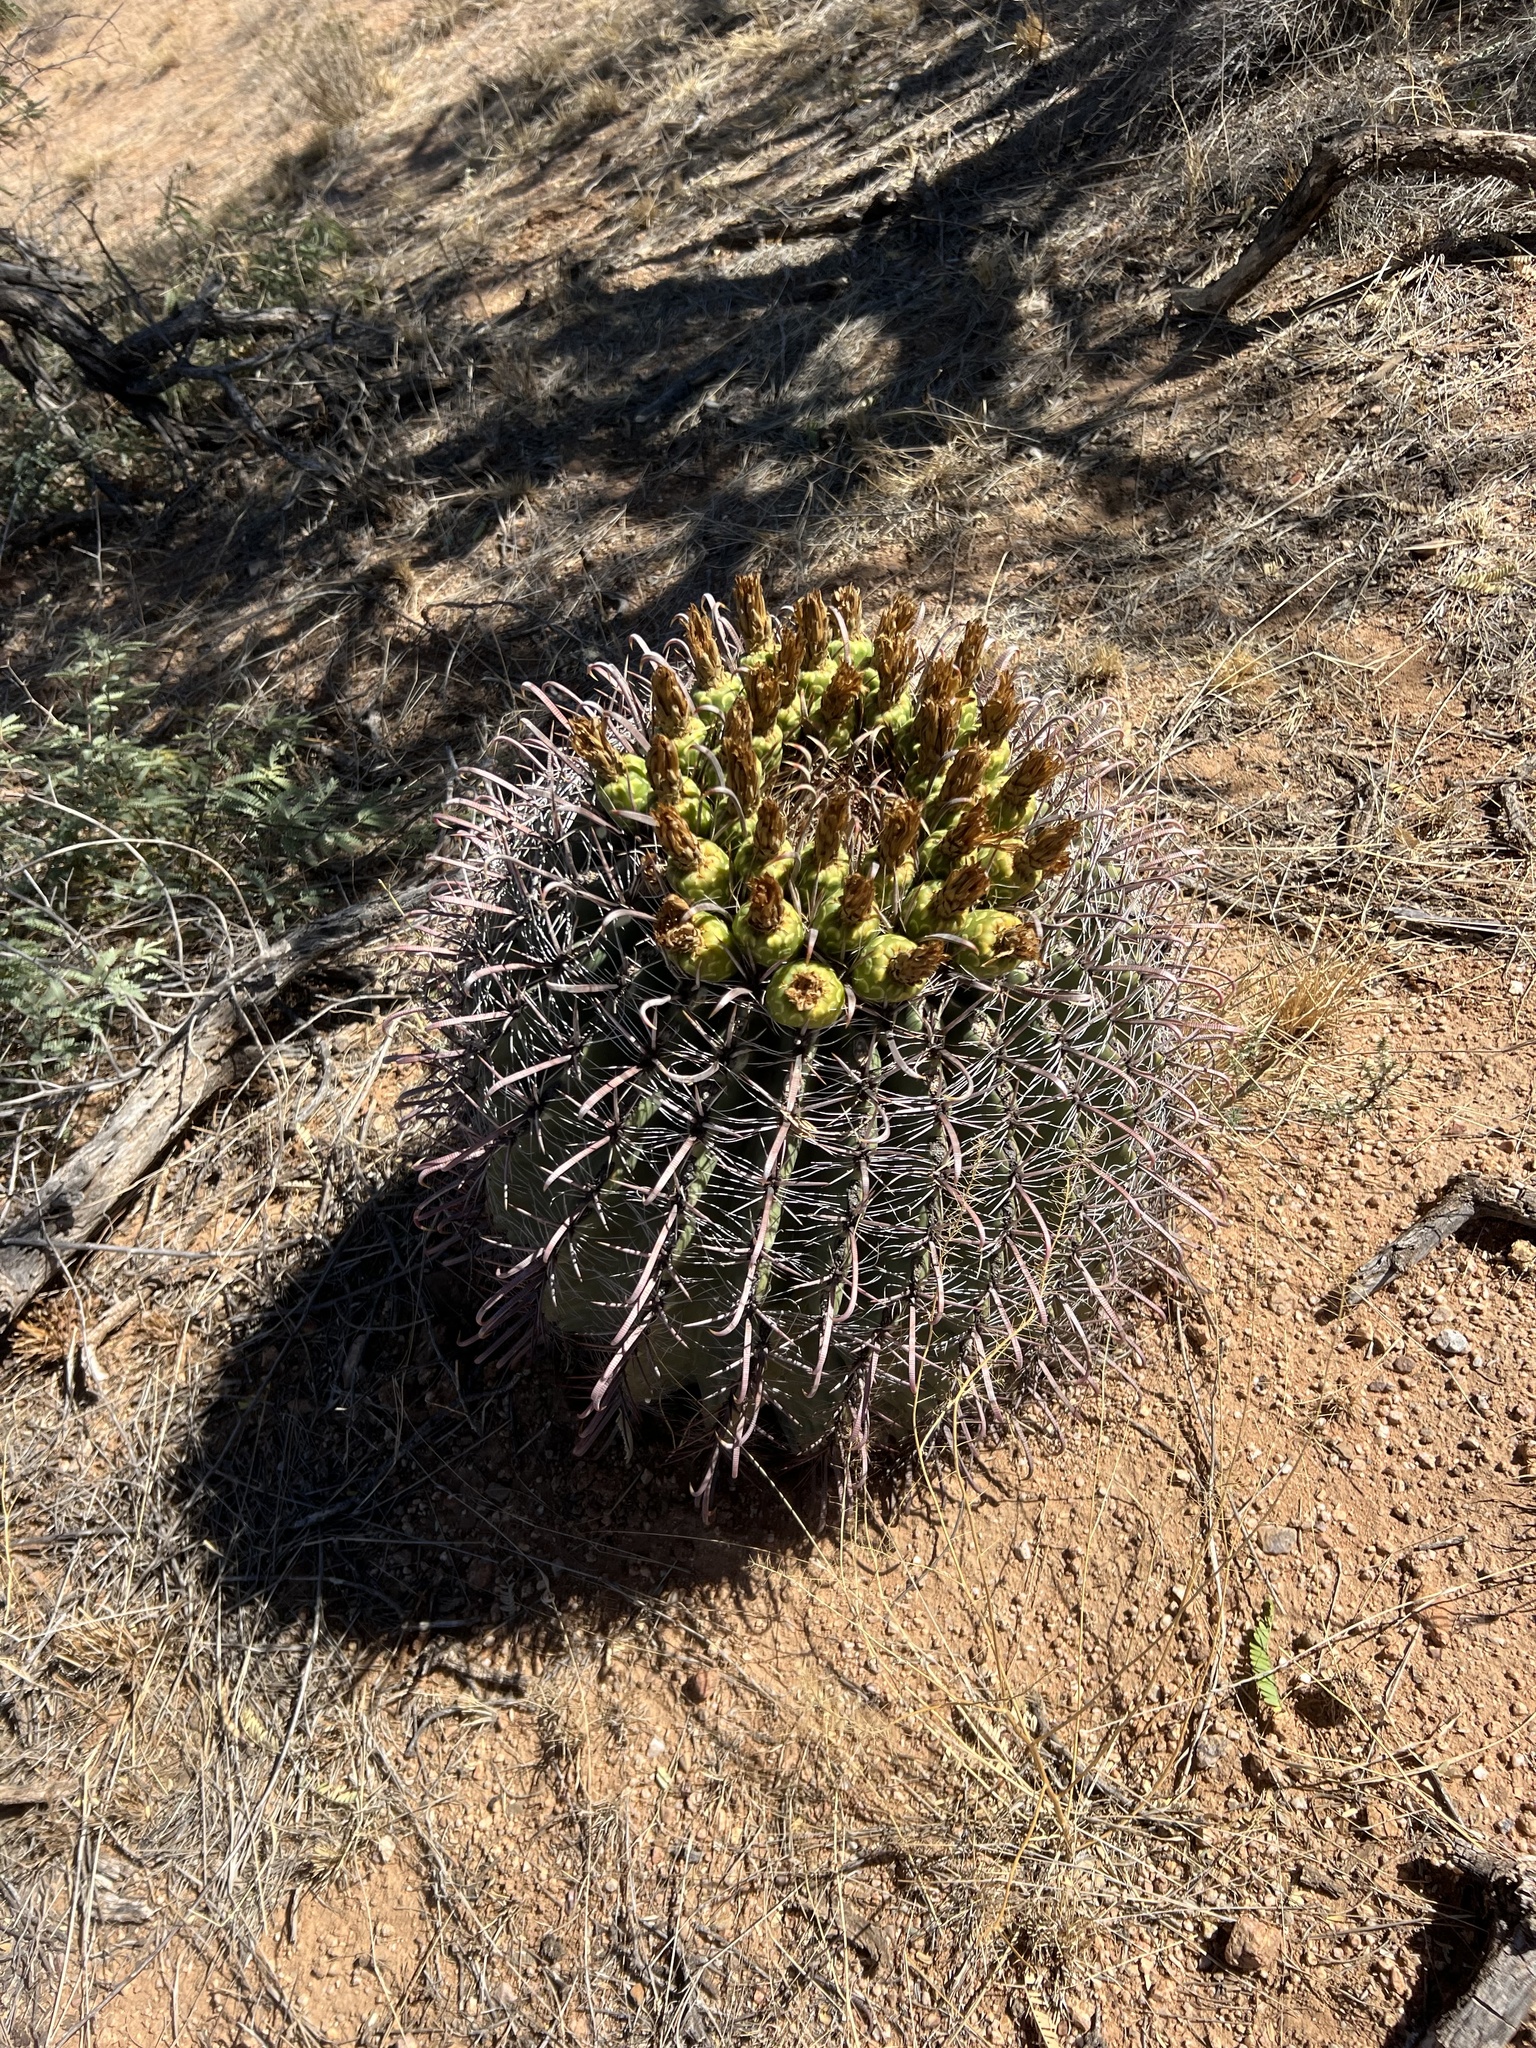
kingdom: Plantae
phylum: Tracheophyta
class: Magnoliopsida
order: Caryophyllales
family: Cactaceae
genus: Ferocactus
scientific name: Ferocactus wislizeni
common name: Candy barrel cactus
